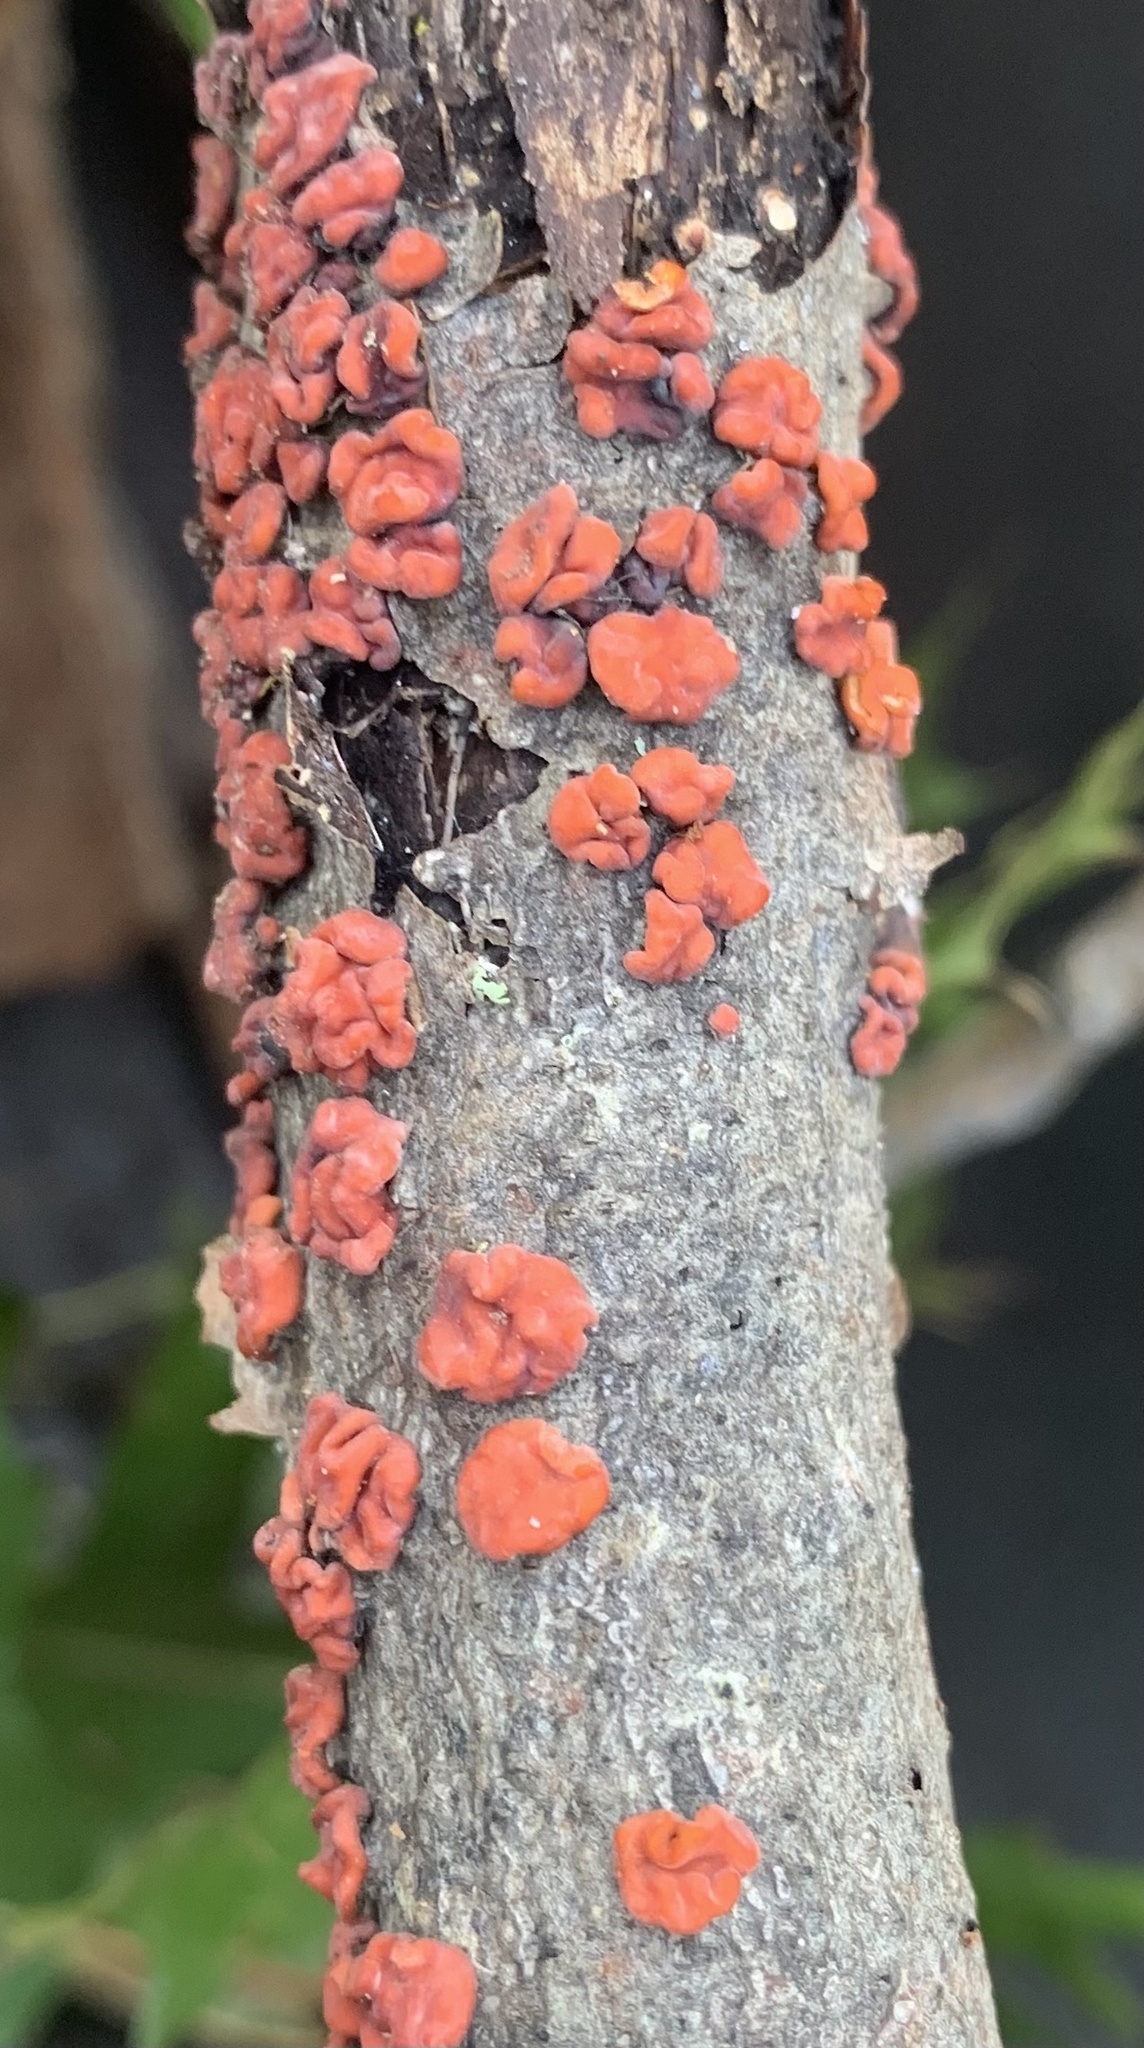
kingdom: Fungi
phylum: Basidiomycota
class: Agaricomycetes
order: Russulales
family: Peniophoraceae
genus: Peniophora
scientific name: Peniophora rufa
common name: Red tree brain fungus
